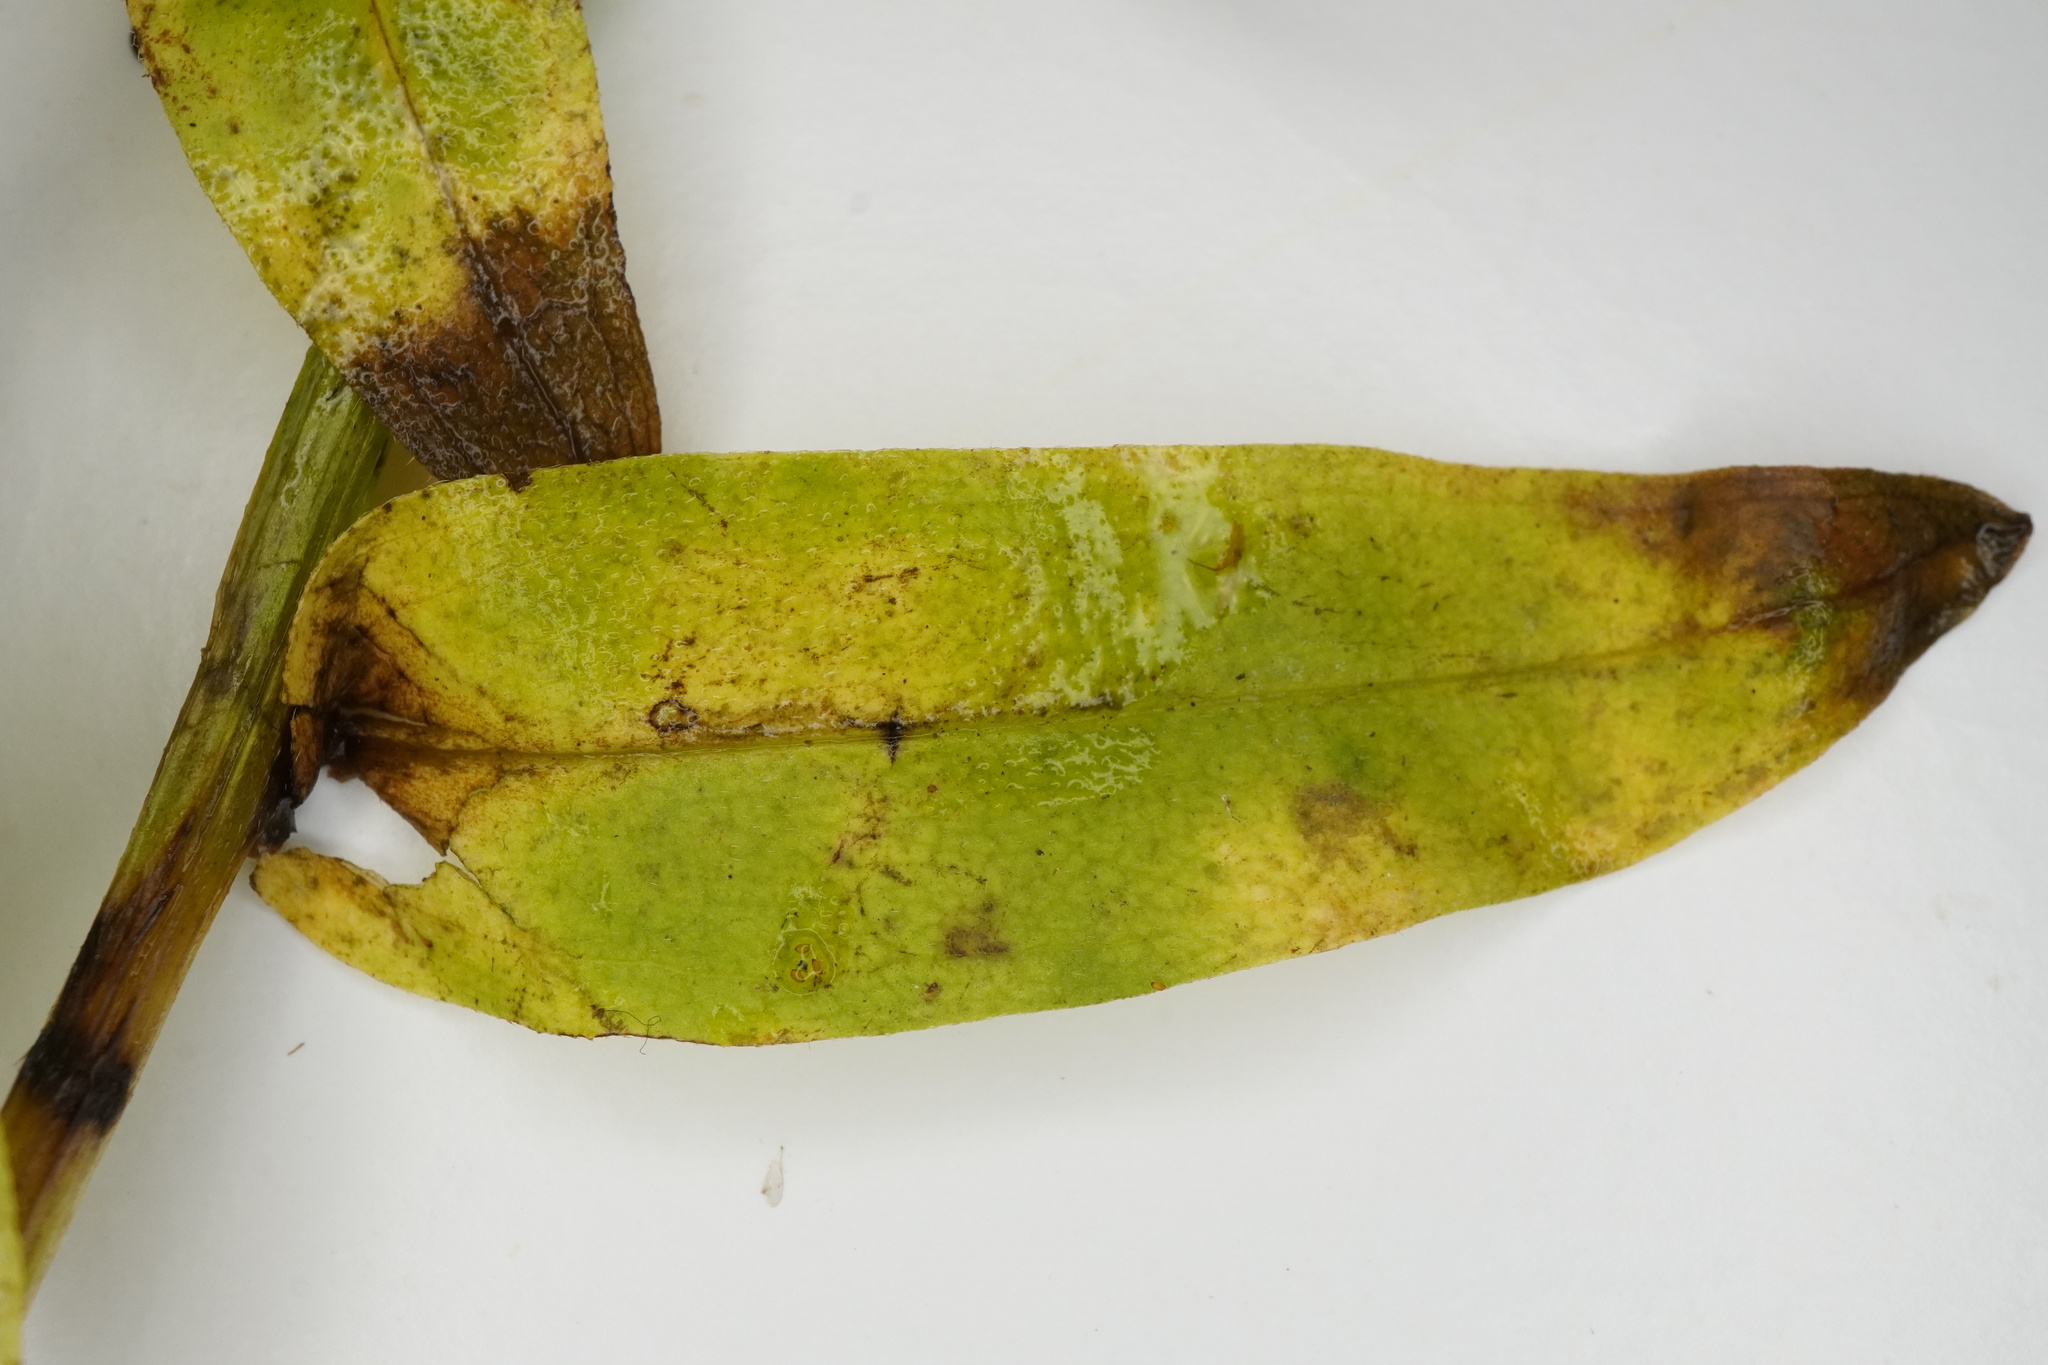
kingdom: Plantae
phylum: Tracheophyta
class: Magnoliopsida
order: Boraginales
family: Boraginaceae
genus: Myosotis
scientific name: Myosotis nemorosa
